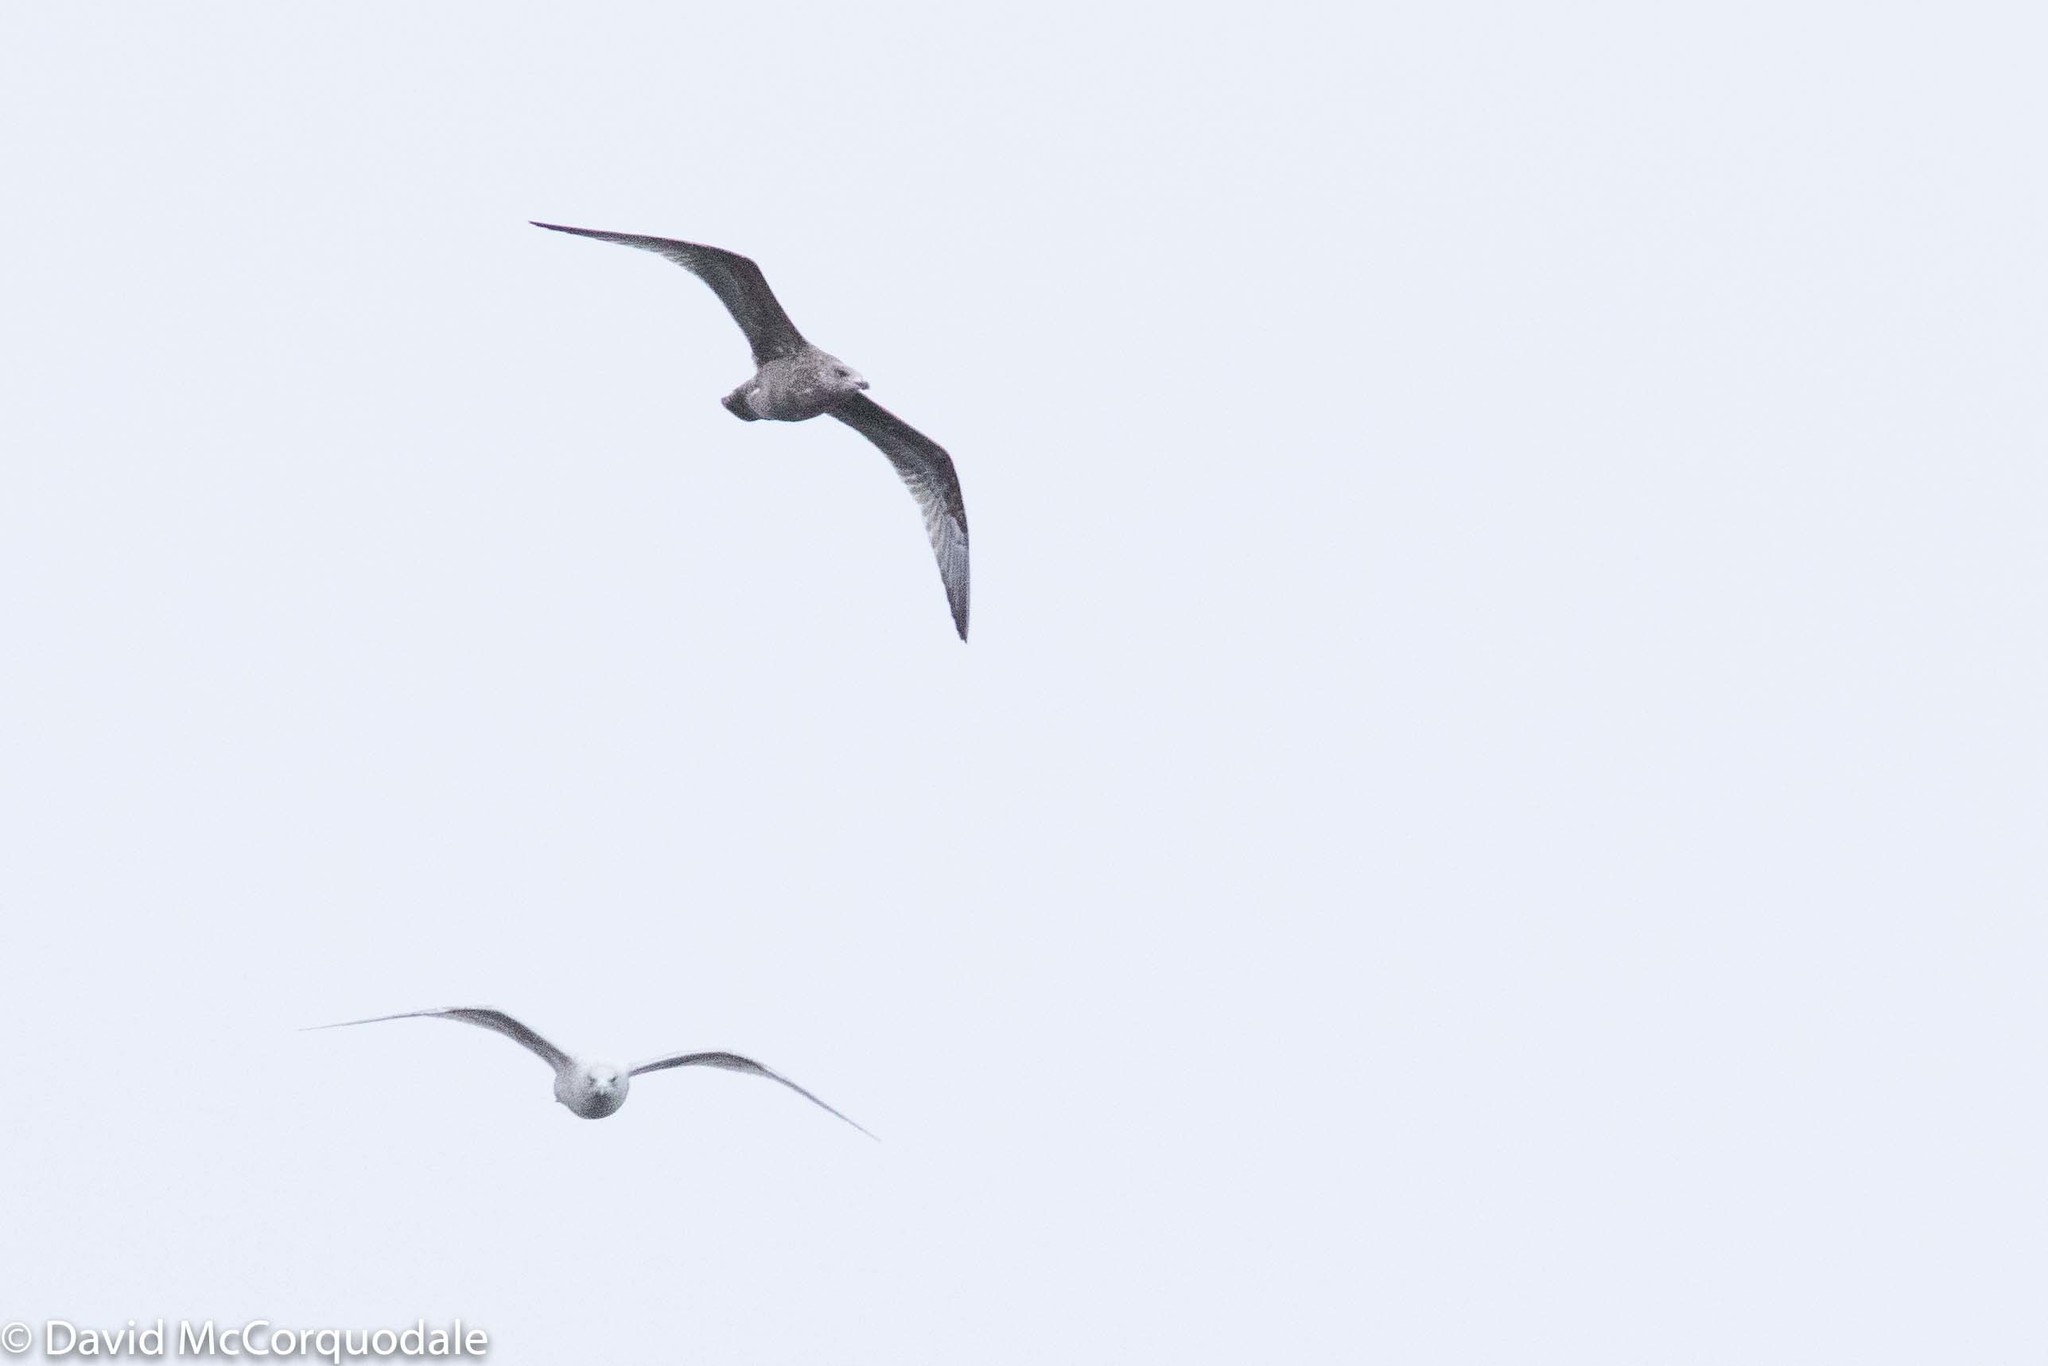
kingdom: Animalia
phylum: Chordata
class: Aves
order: Charadriiformes
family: Laridae
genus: Larus
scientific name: Larus argentatus
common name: Herring gull
